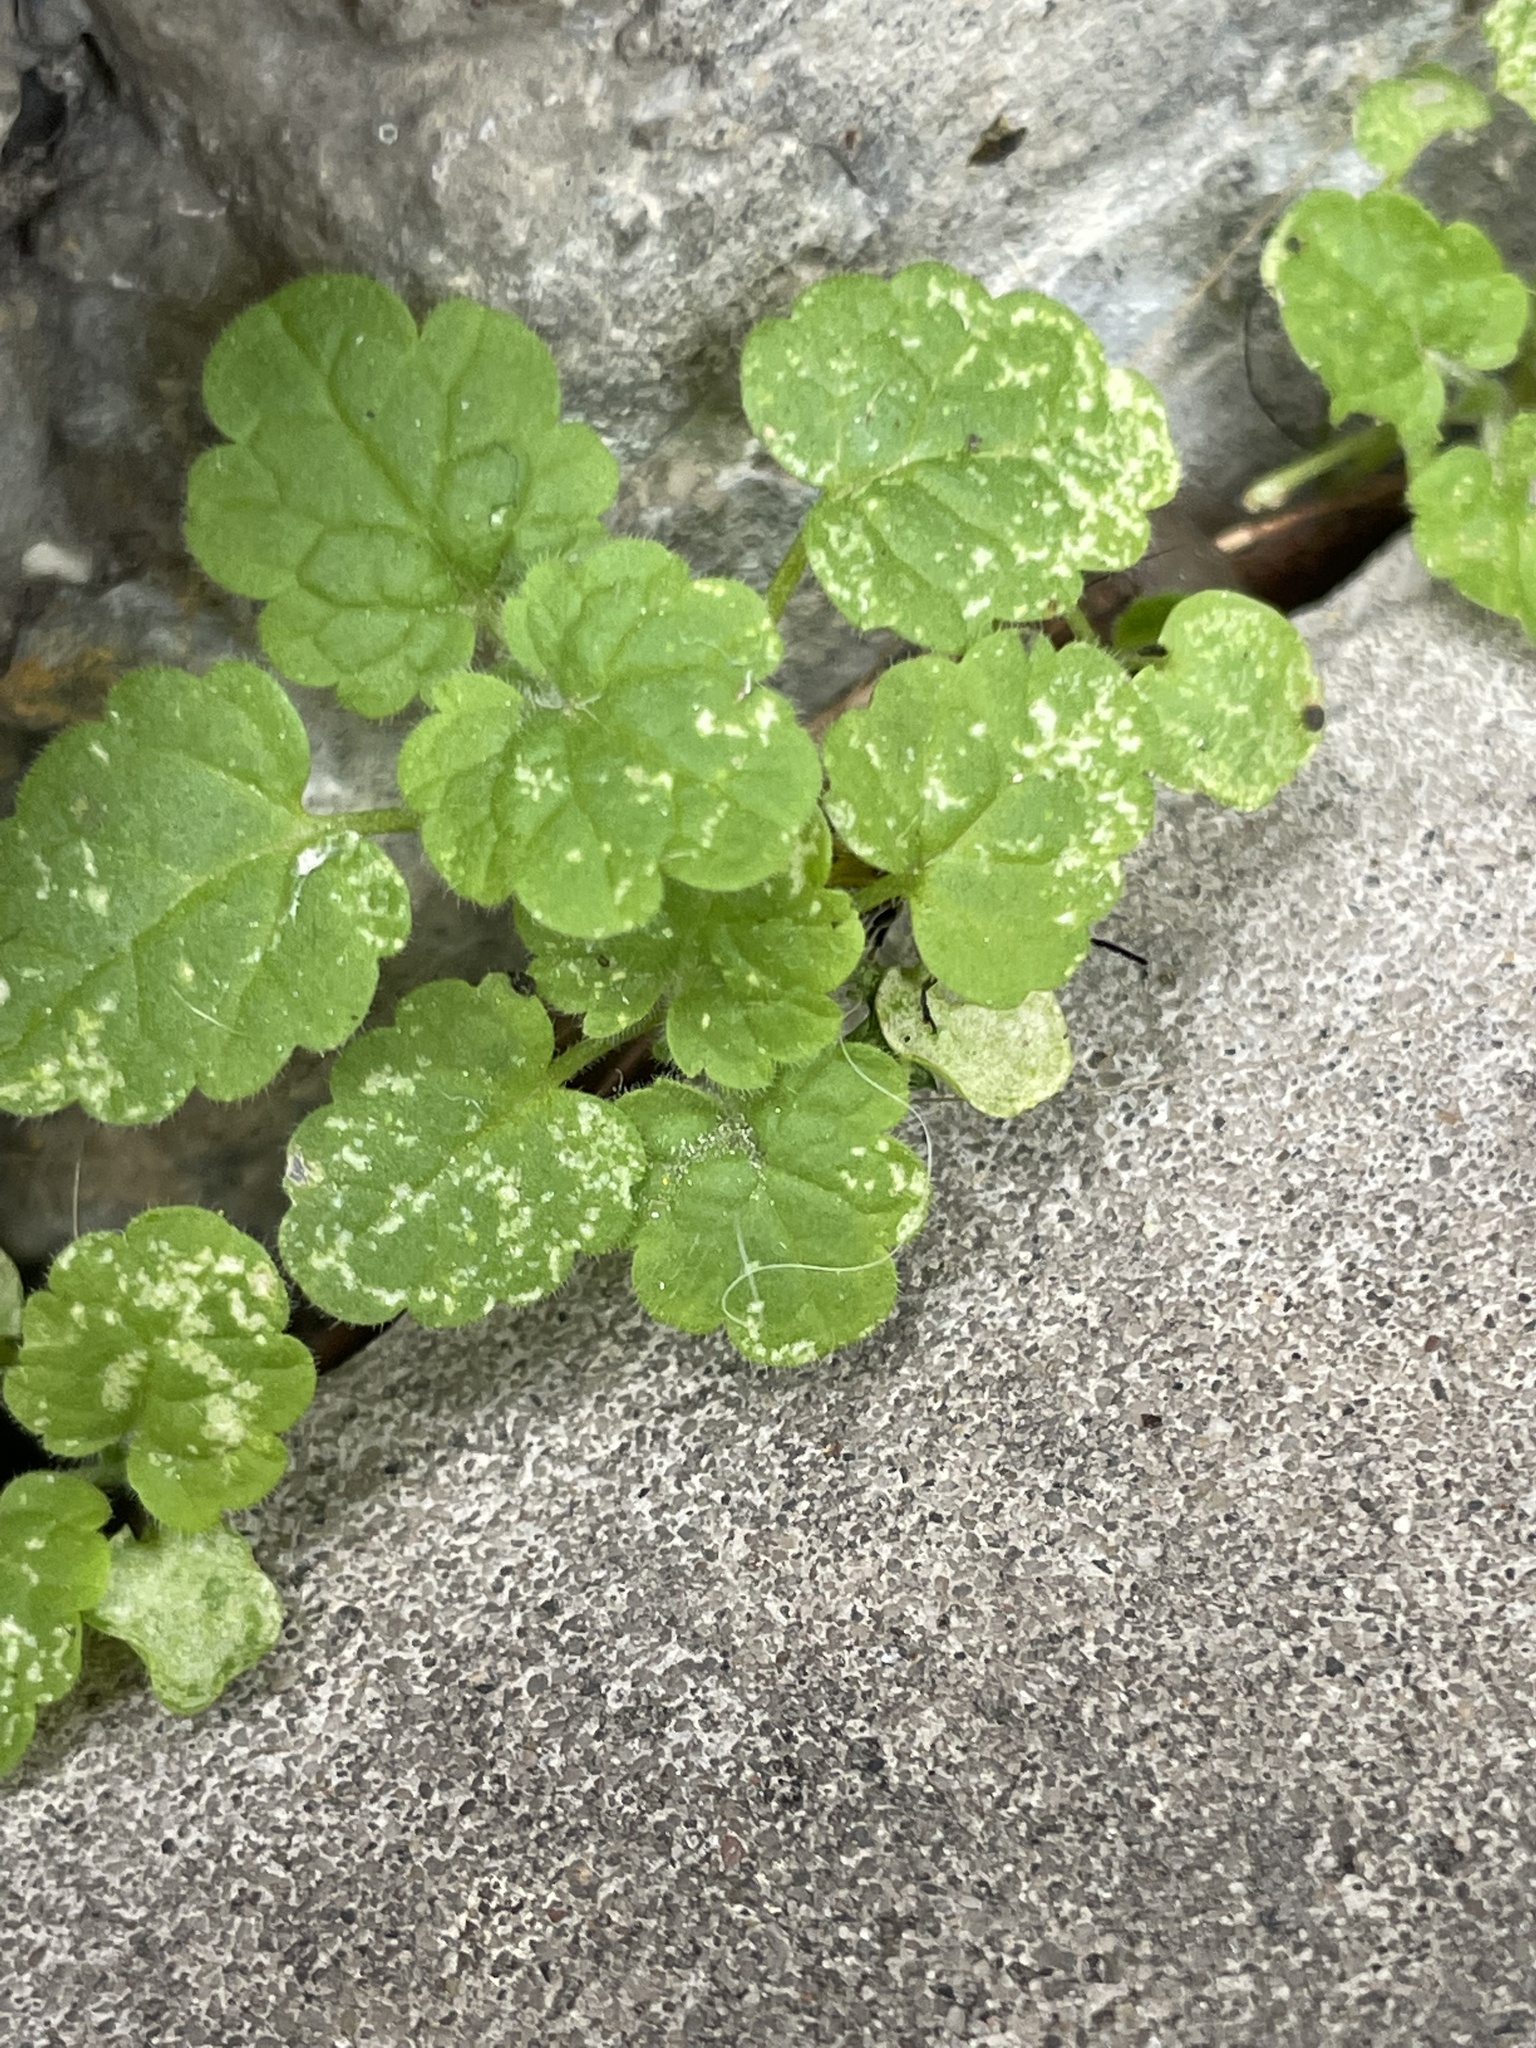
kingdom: Plantae
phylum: Tracheophyta
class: Magnoliopsida
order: Lamiales
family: Lamiaceae
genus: Lamium
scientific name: Lamium amplexicaule
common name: Henbit dead-nettle
